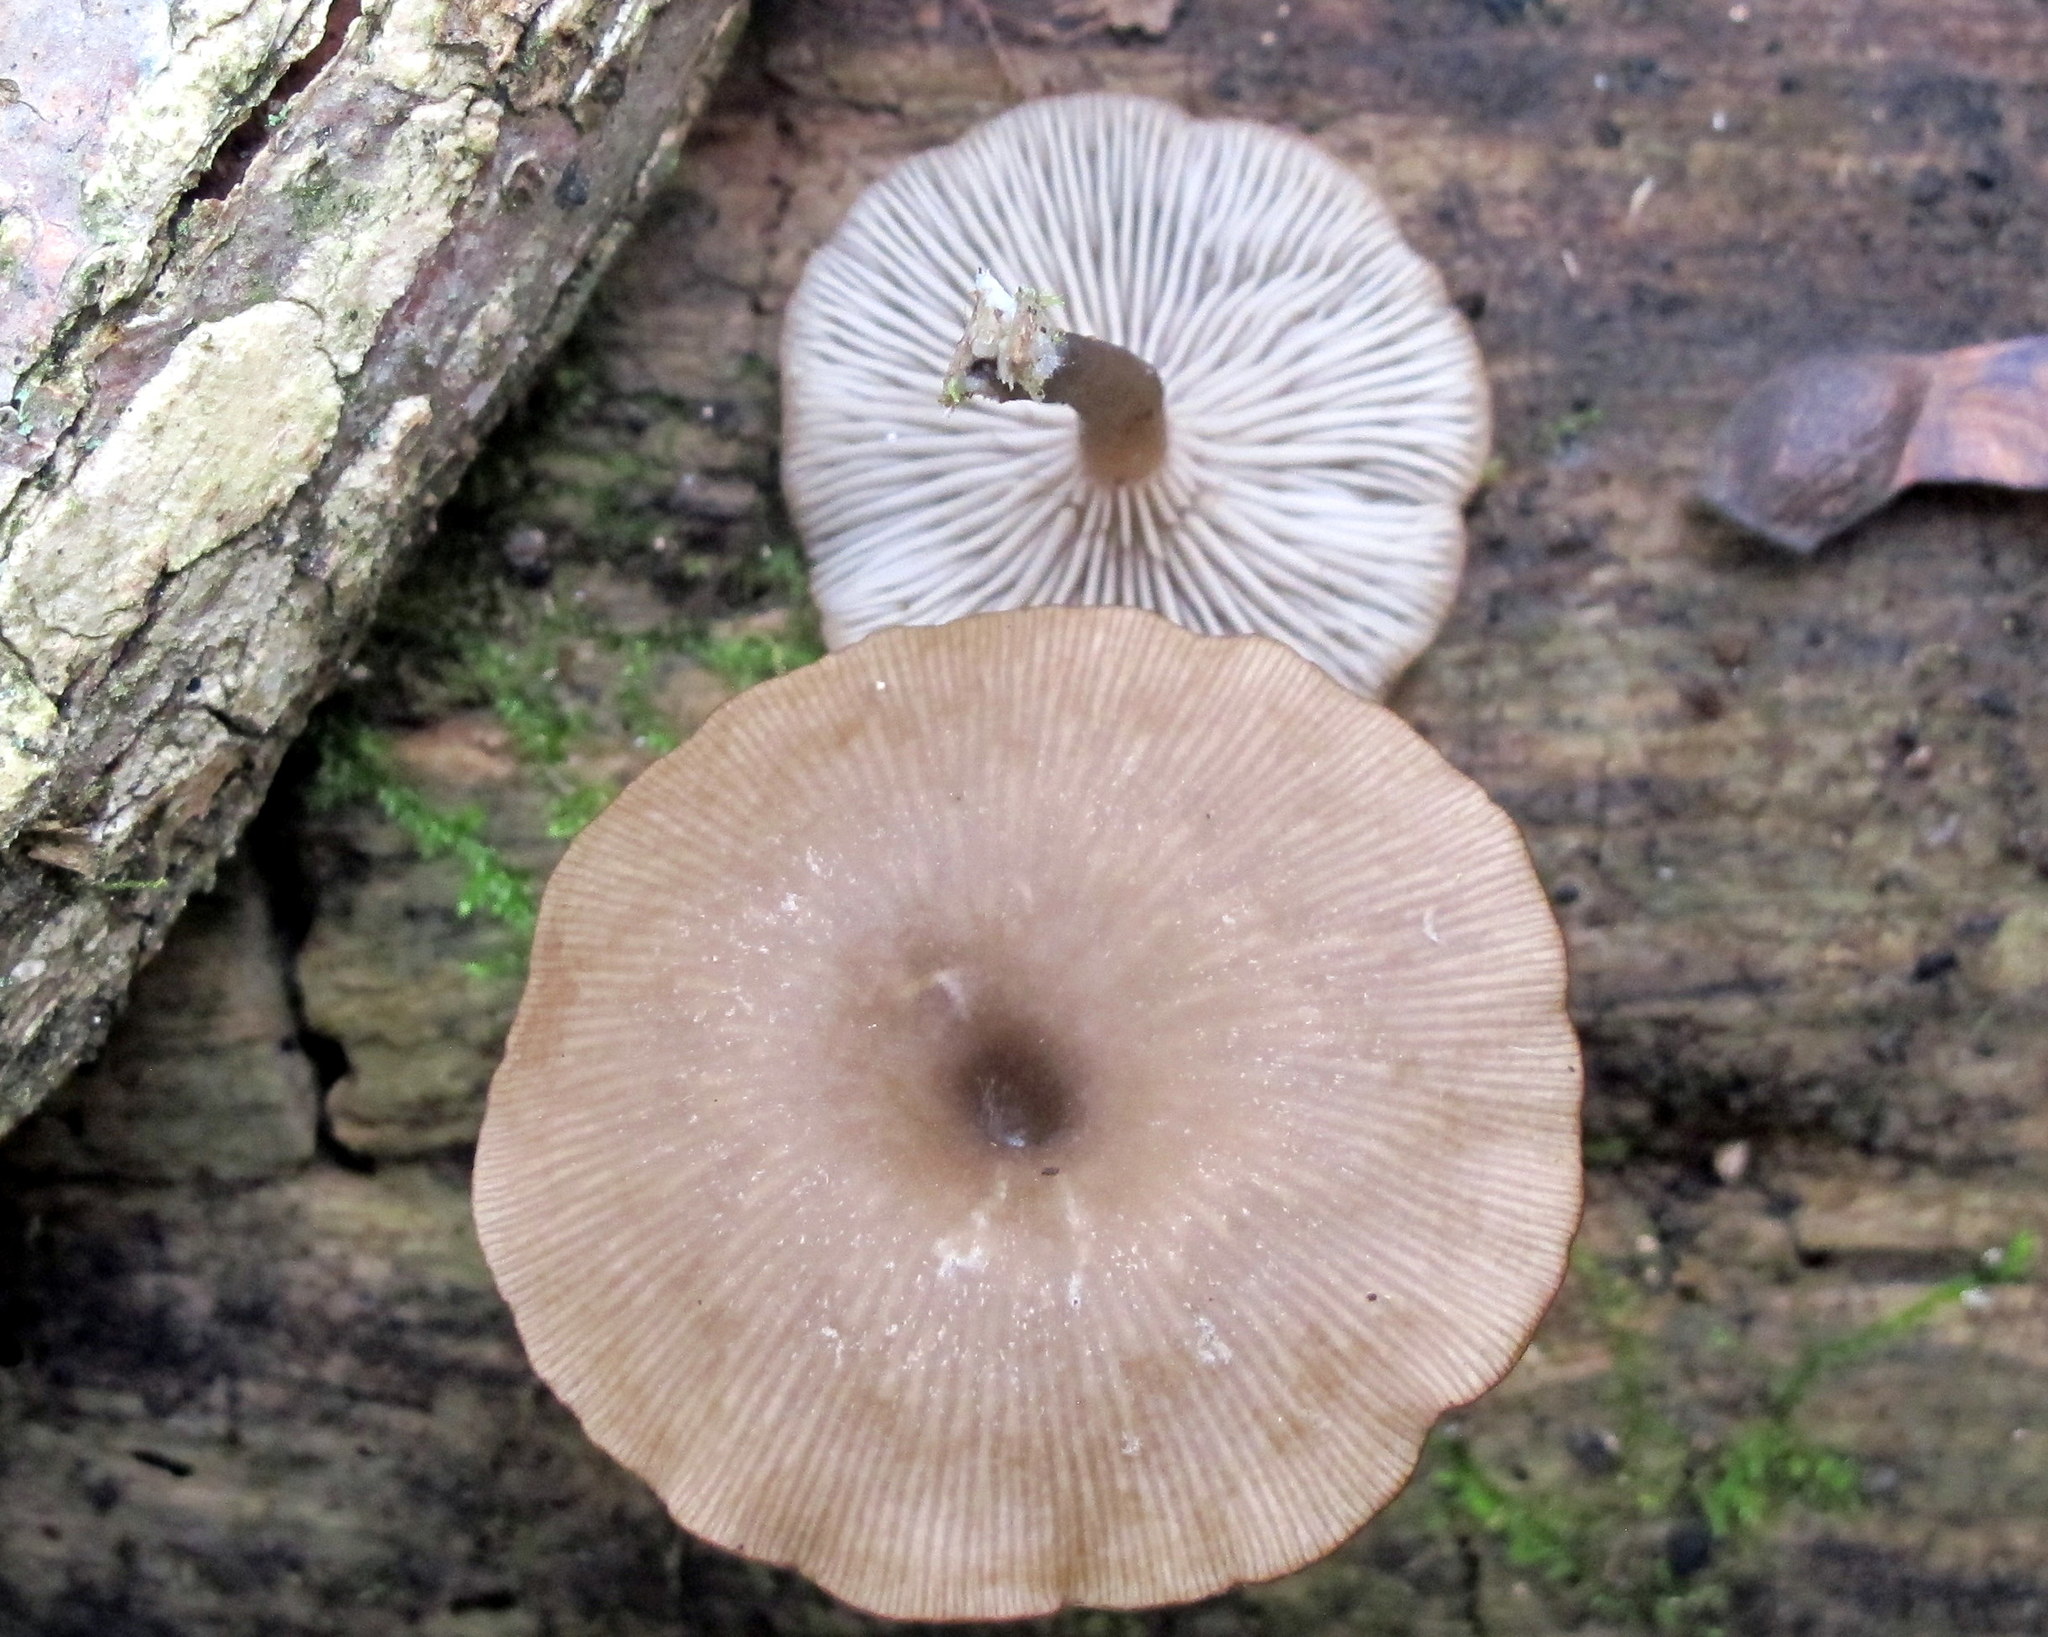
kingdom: Fungi
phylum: Basidiomycota
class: Agaricomycetes
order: Agaricales
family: Hygrophoraceae
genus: Arrhenia
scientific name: Arrhenia epichysium
